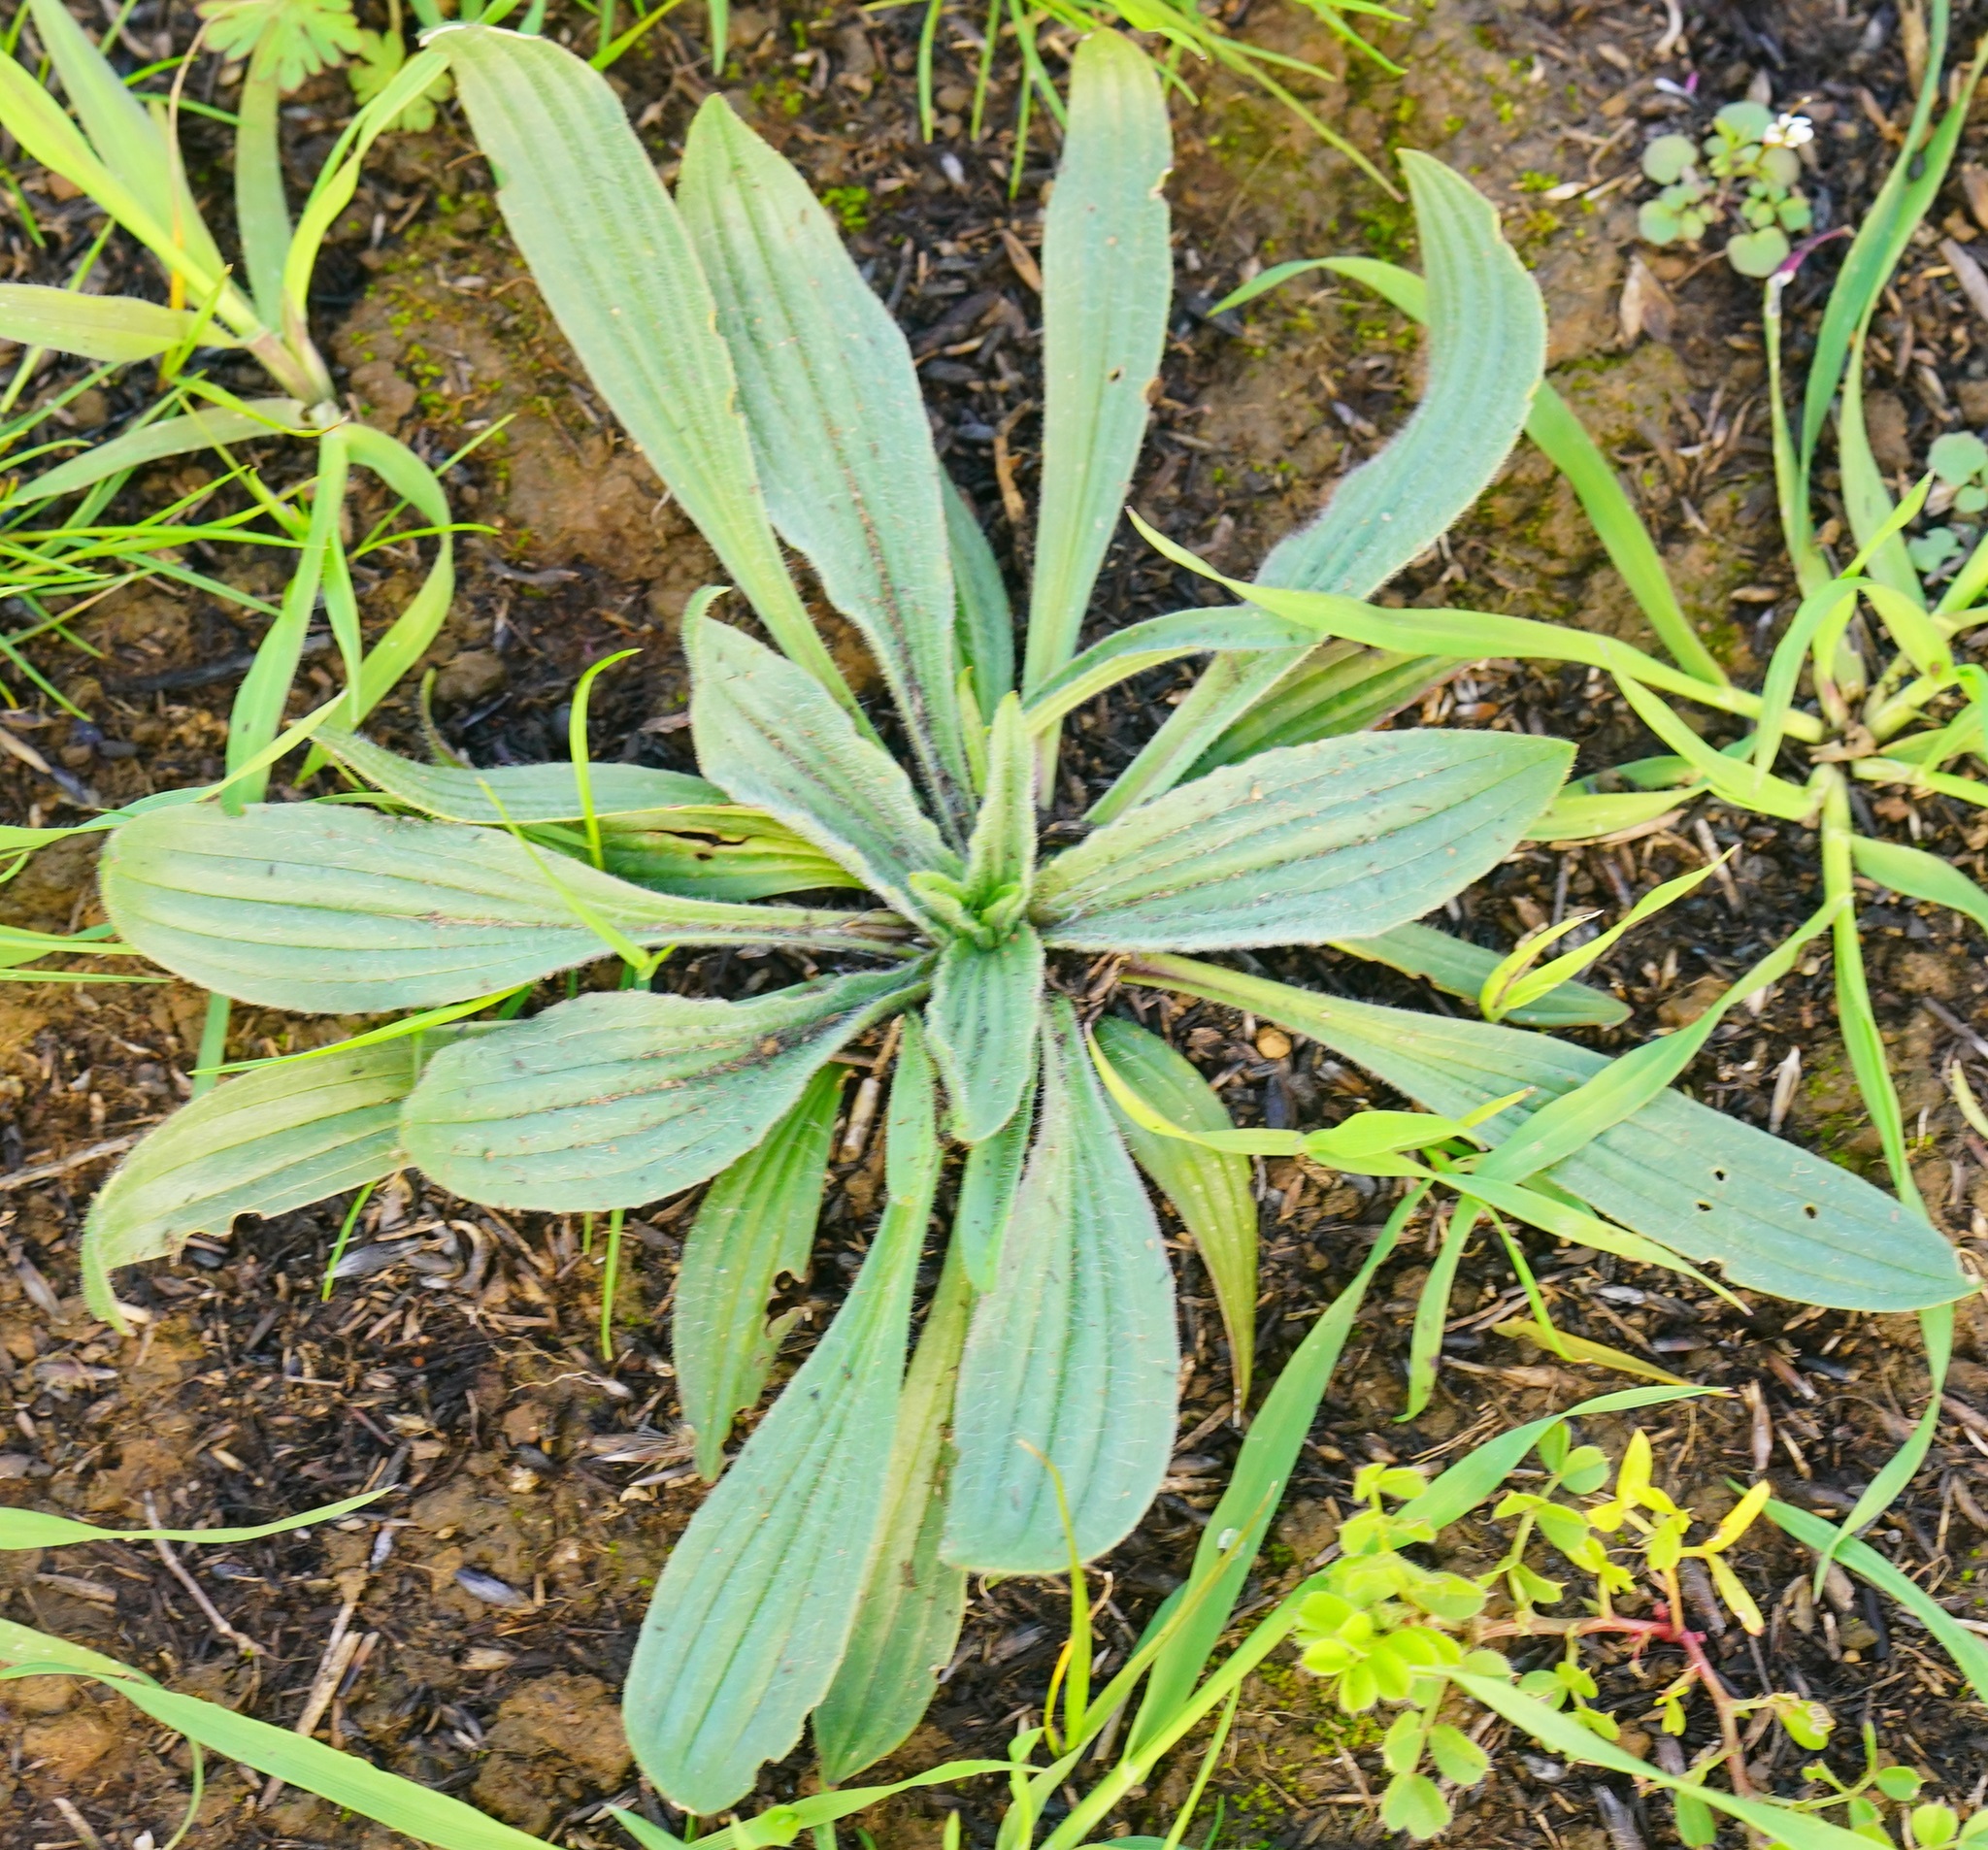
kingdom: Plantae
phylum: Tracheophyta
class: Magnoliopsida
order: Lamiales
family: Plantaginaceae
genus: Plantago
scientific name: Plantago lanceolata
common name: Ribwort plantain
